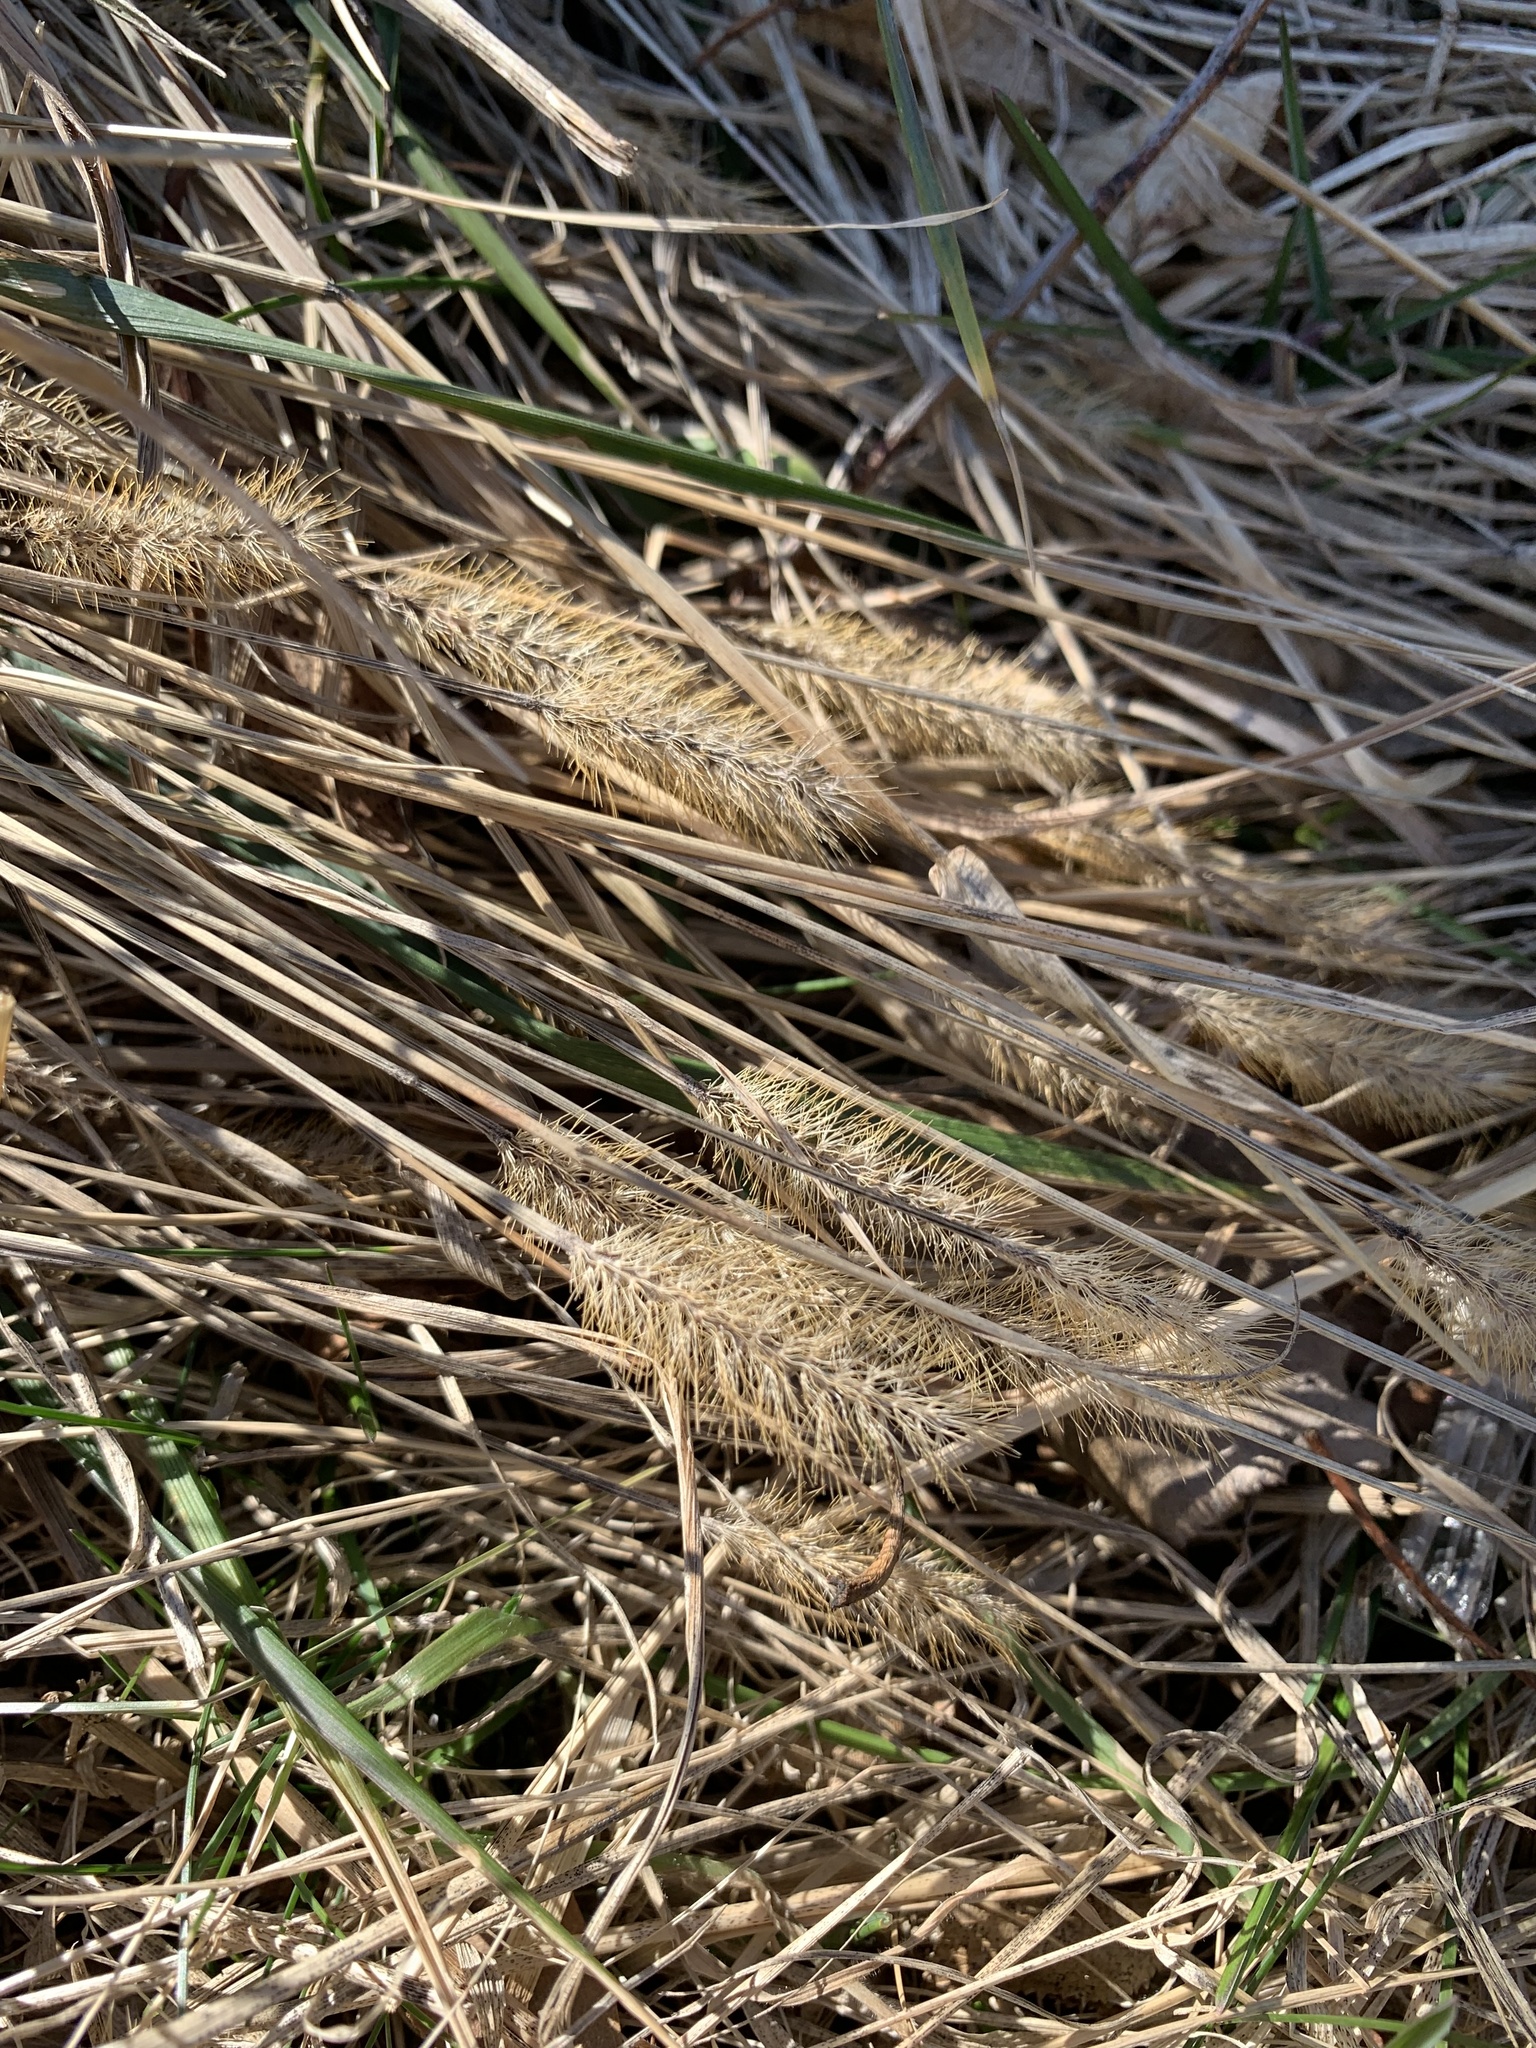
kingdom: Plantae
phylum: Tracheophyta
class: Liliopsida
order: Poales
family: Poaceae
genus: Setaria
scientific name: Setaria pumila
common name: Yellow bristle-grass
